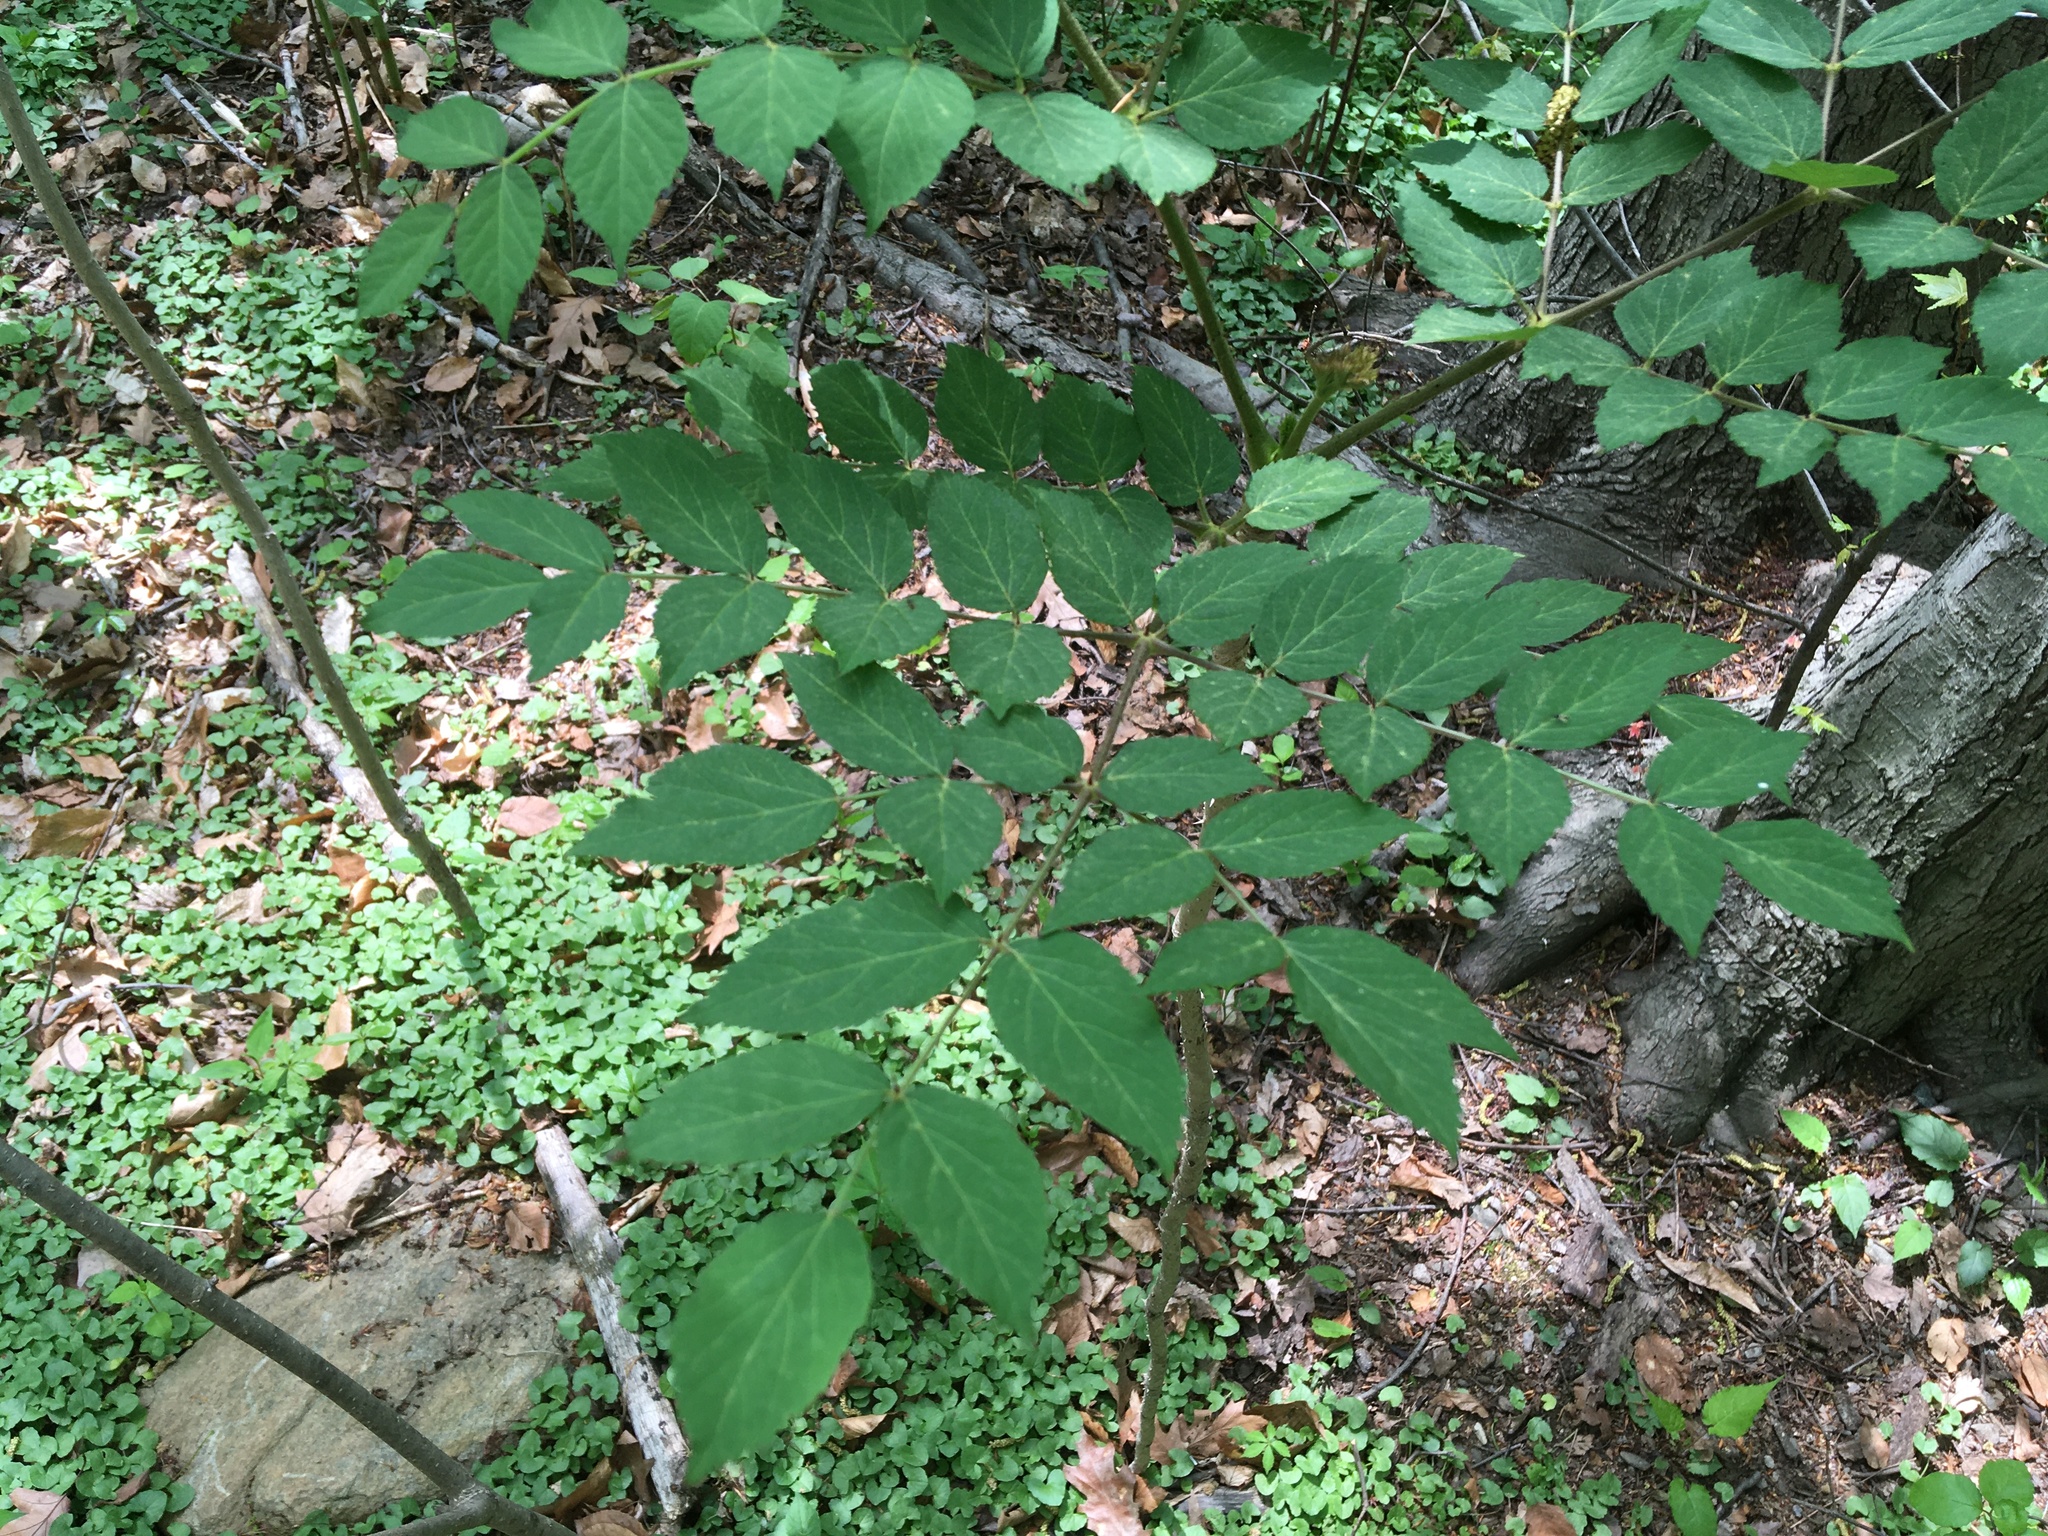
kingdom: Plantae
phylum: Tracheophyta
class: Magnoliopsida
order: Apiales
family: Araliaceae
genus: Aralia
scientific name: Aralia elata
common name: Japanese angelica-tree
